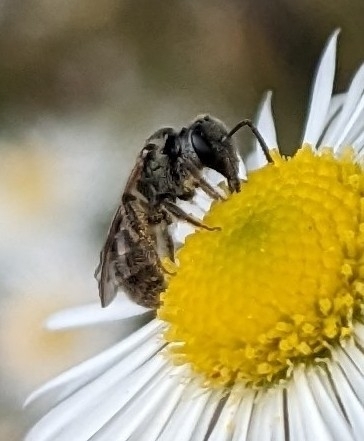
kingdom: Animalia
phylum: Arthropoda
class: Insecta
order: Hymenoptera
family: Halictidae
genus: Dialictus
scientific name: Dialictus
